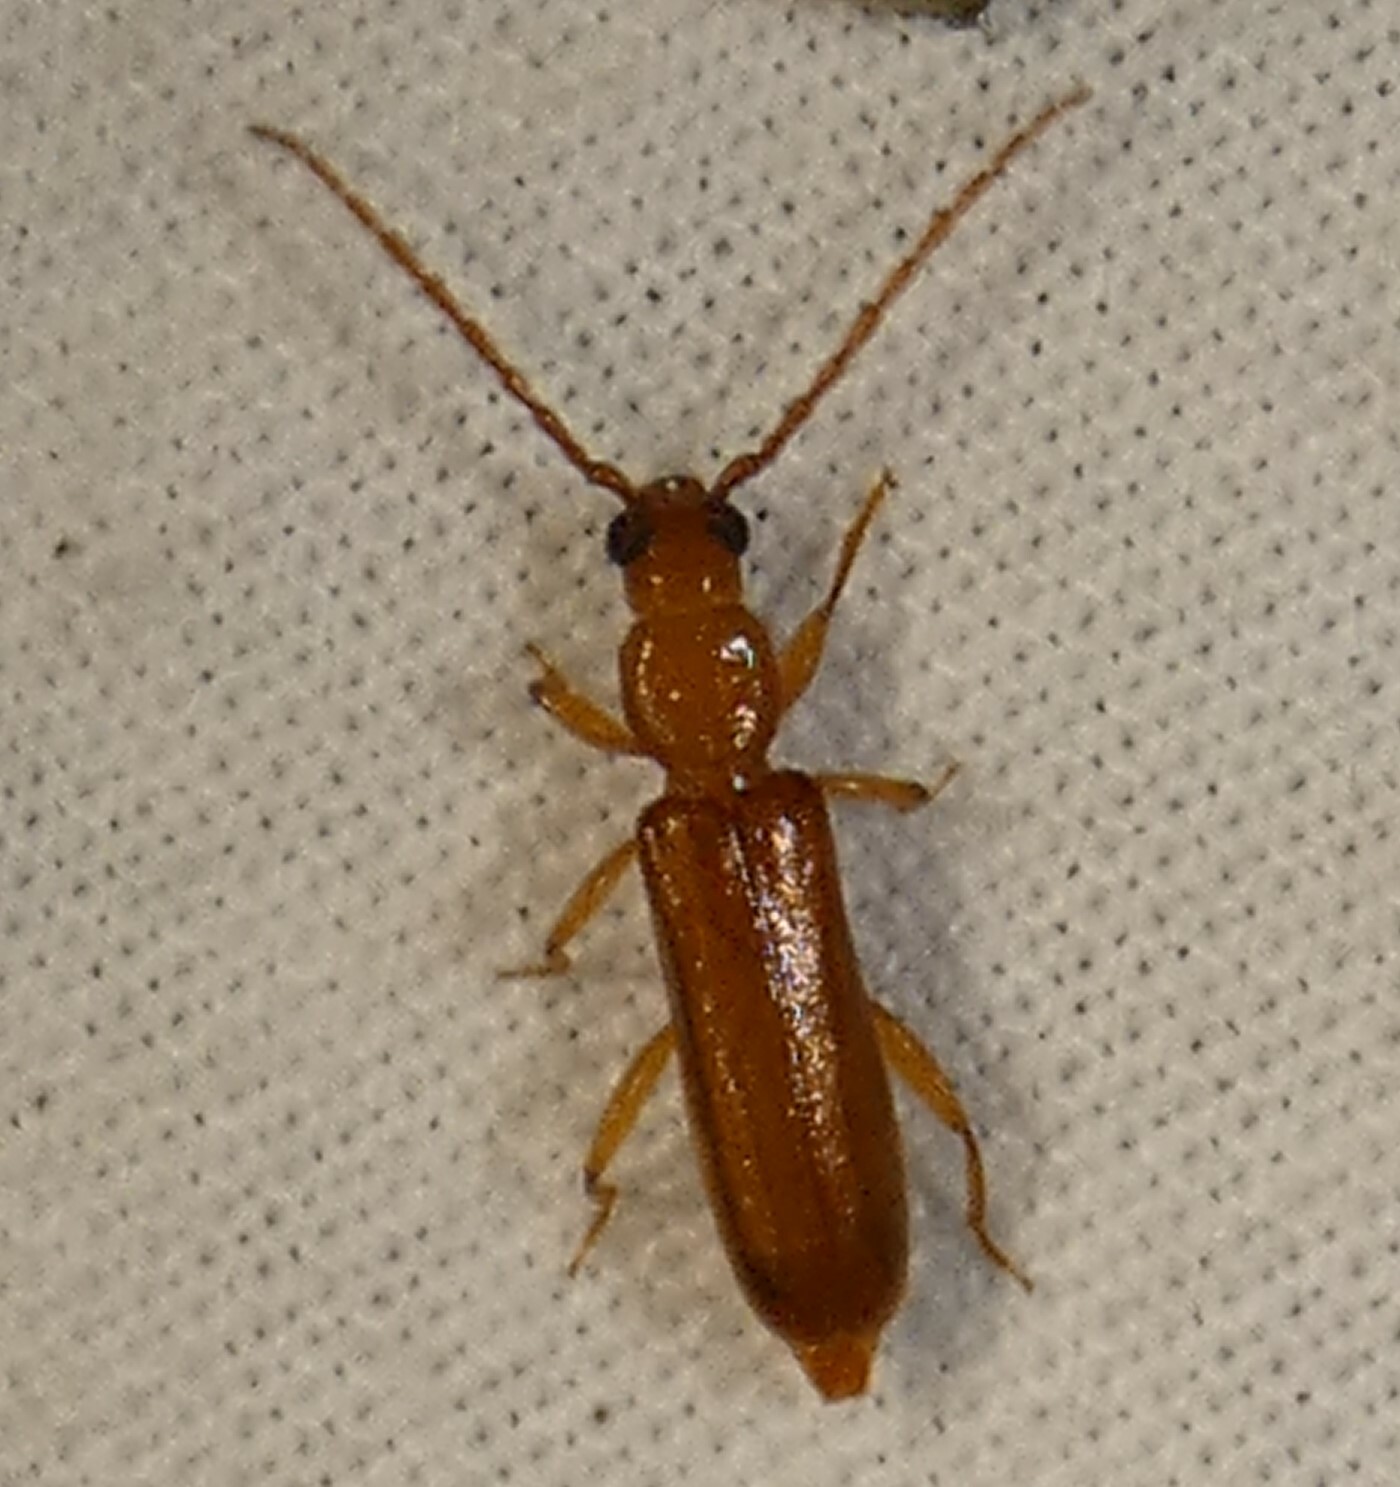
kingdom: Animalia
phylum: Arthropoda
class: Insecta
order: Coleoptera
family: Cerambycidae
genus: Smodicum
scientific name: Smodicum cucujiforme
